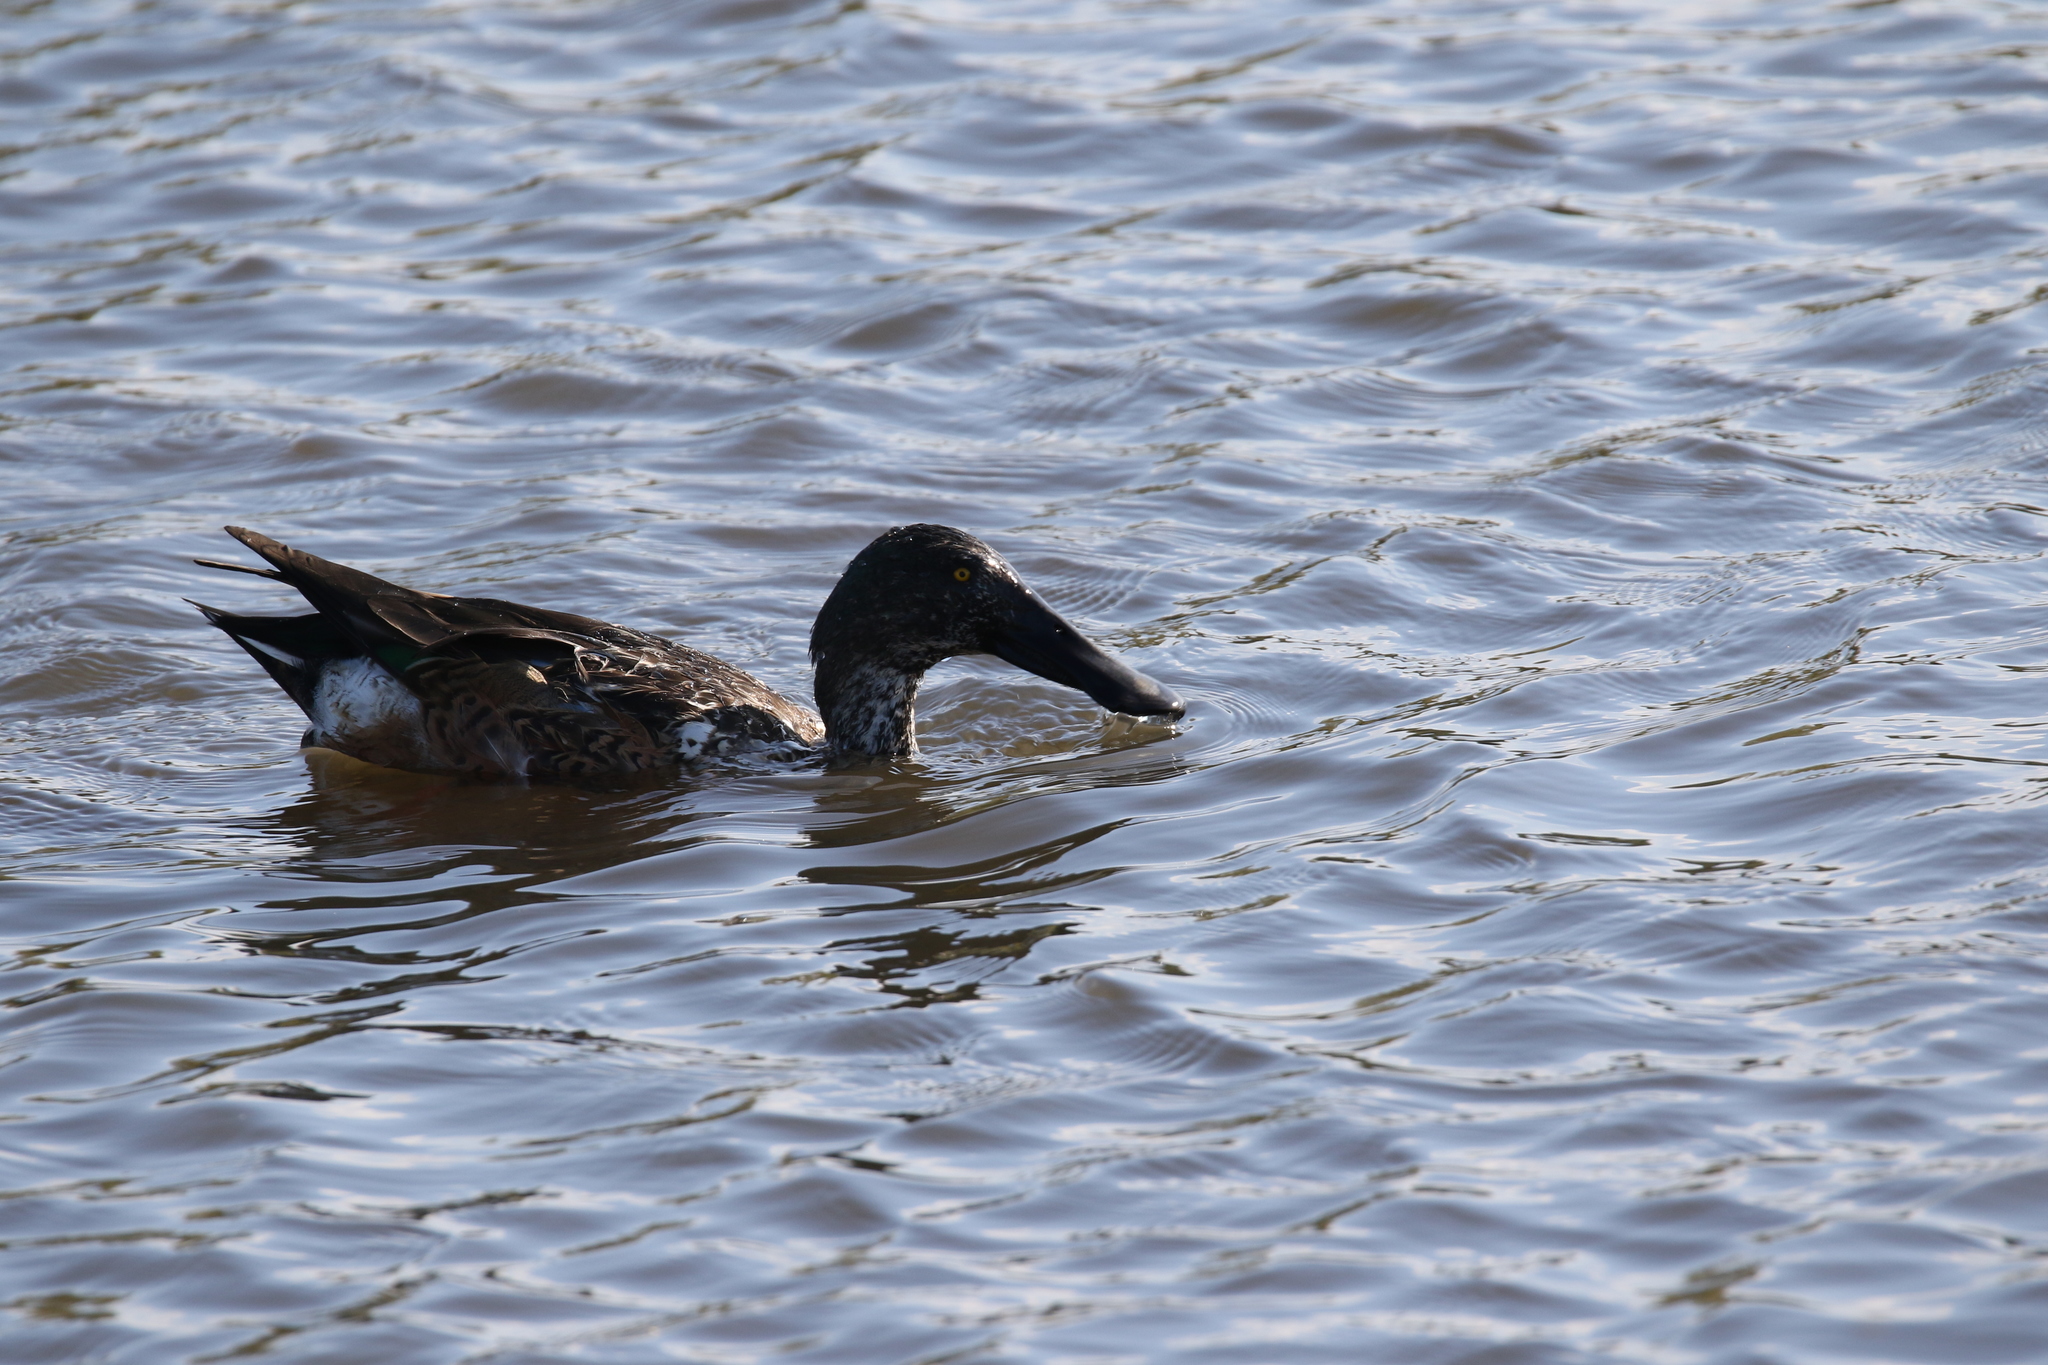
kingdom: Animalia
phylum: Chordata
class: Aves
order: Anseriformes
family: Anatidae
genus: Spatula
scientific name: Spatula clypeata
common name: Northern shoveler
